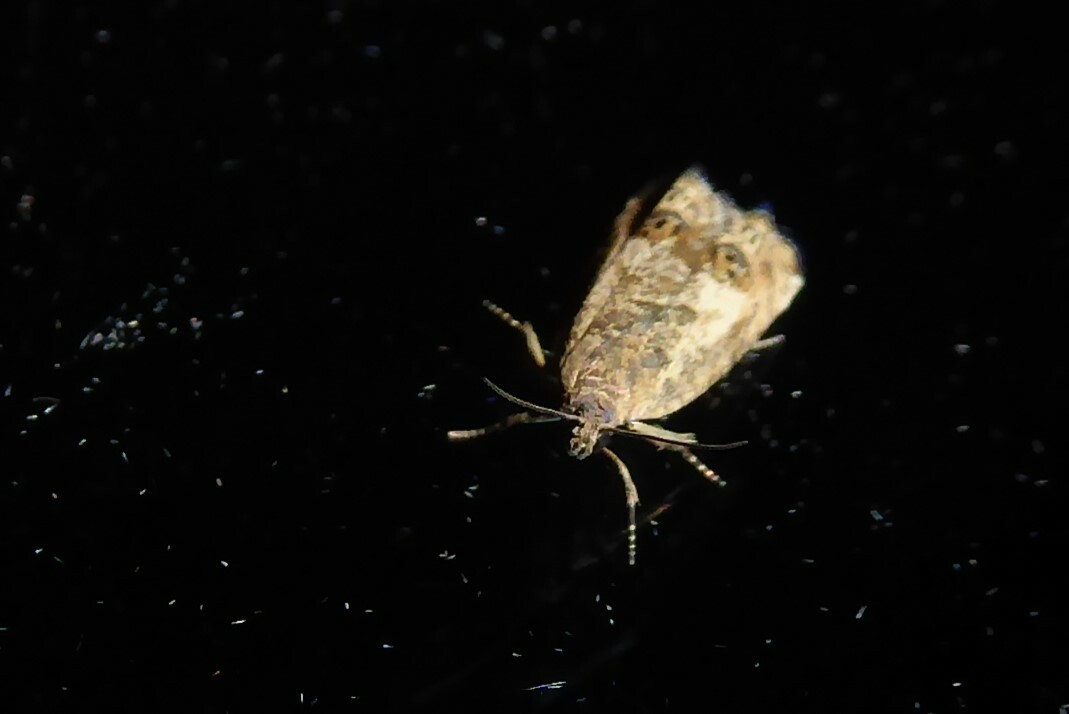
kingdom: Animalia
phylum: Arthropoda
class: Insecta
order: Lepidoptera
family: Tortricidae
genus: Cydia
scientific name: Cydia succedana
